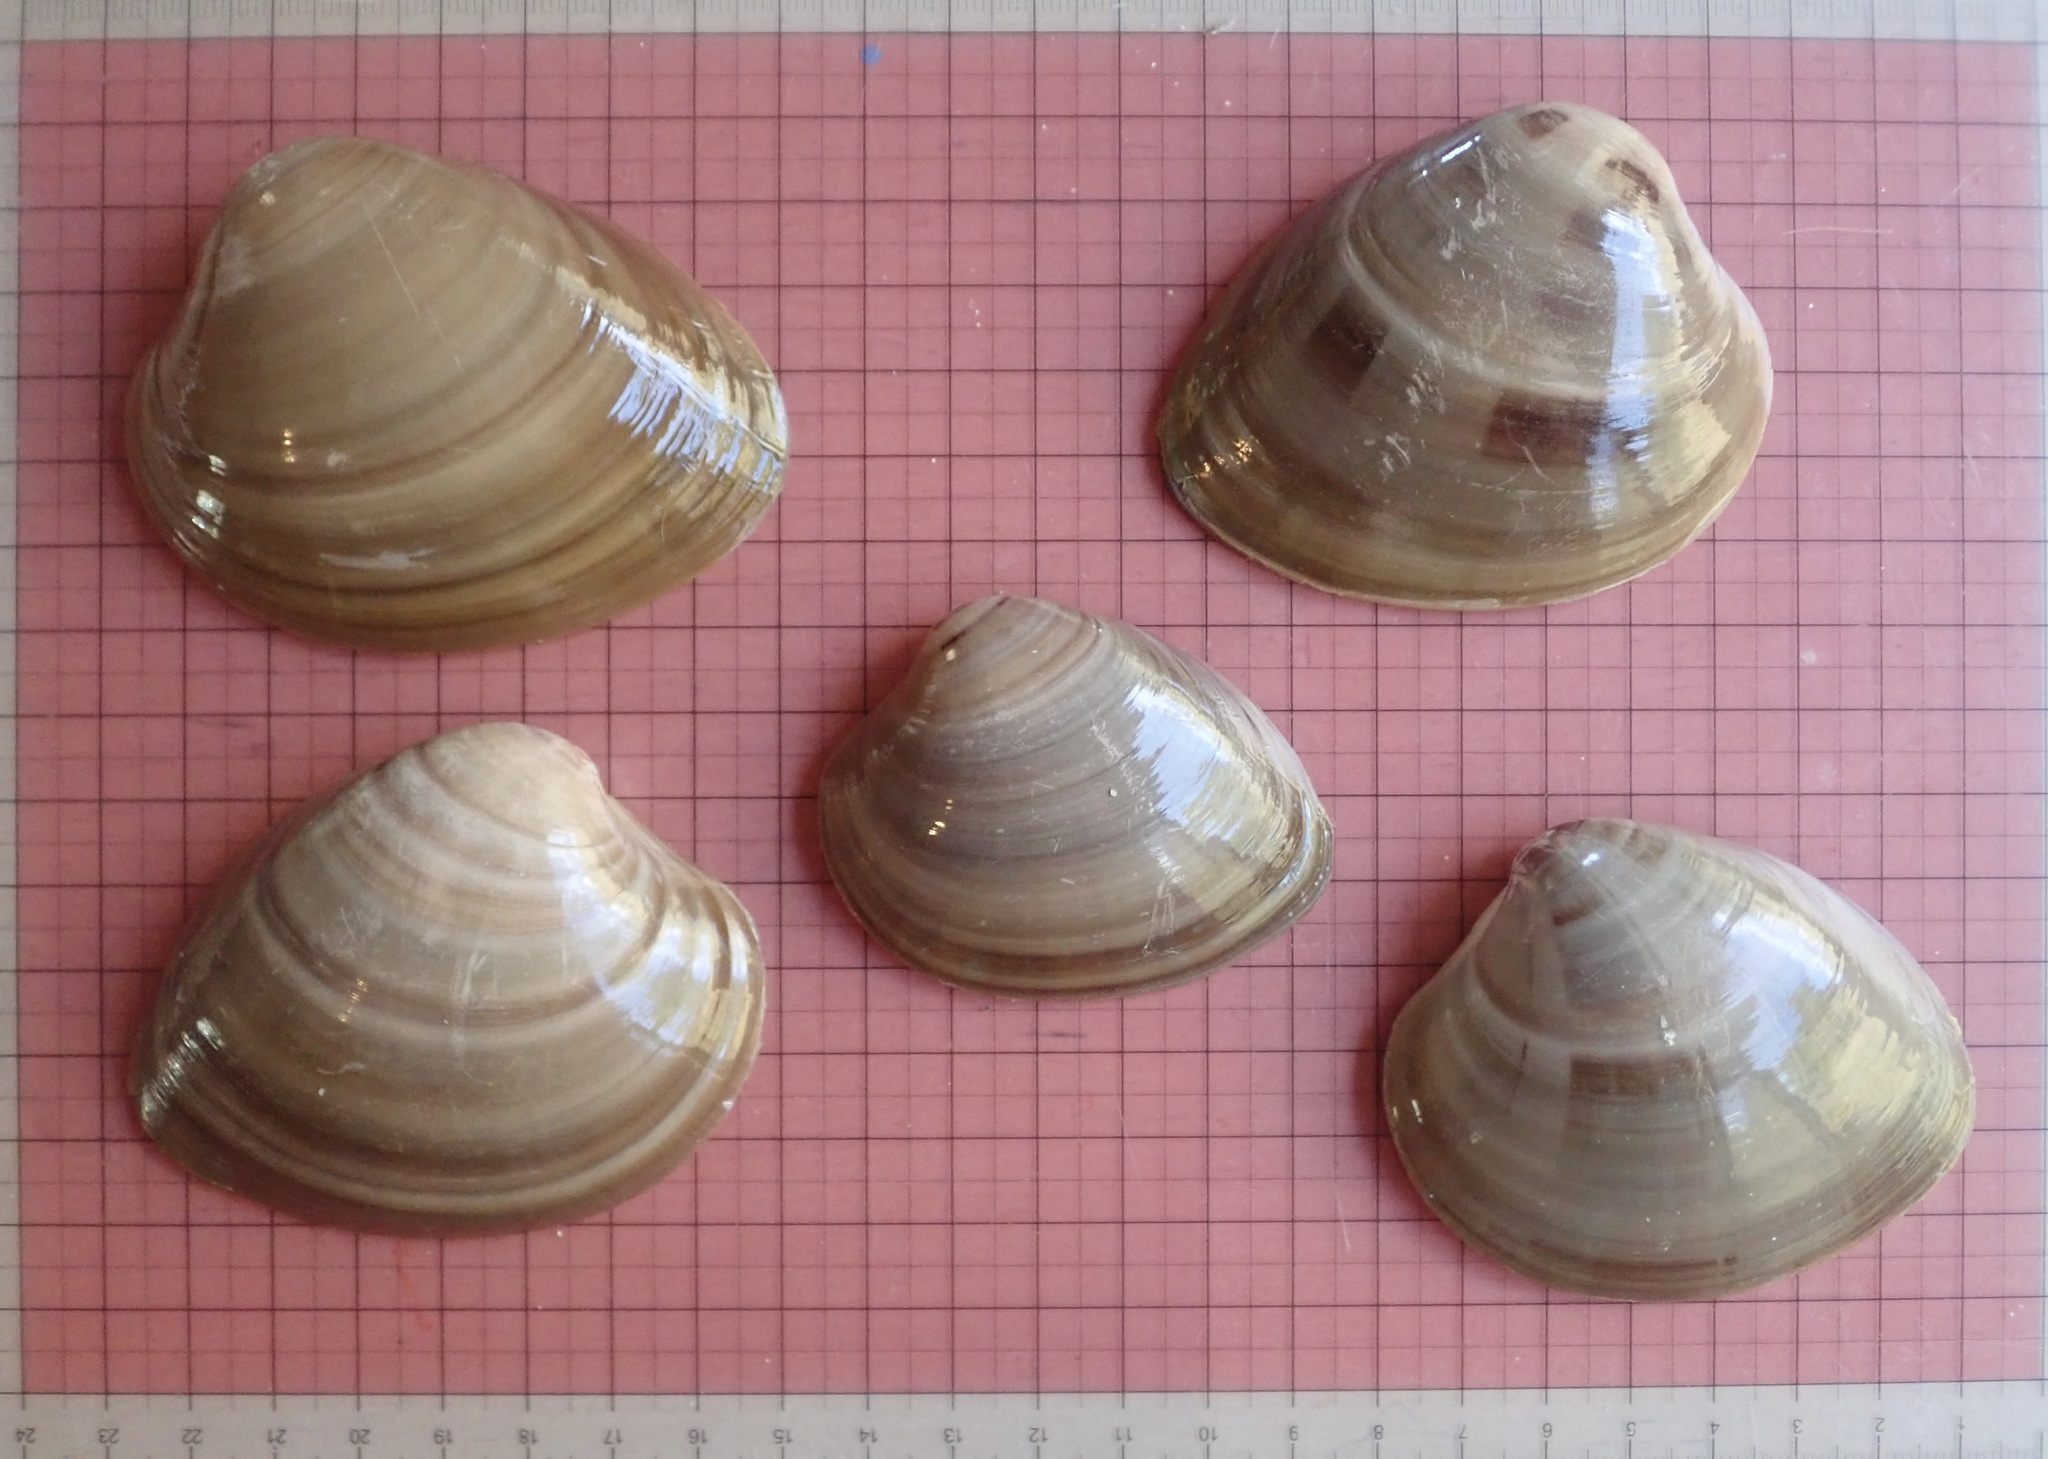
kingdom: Animalia
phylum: Mollusca
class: Bivalvia
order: Venerida
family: Veneridae
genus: Megapitaria
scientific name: Megapitaria squalida
